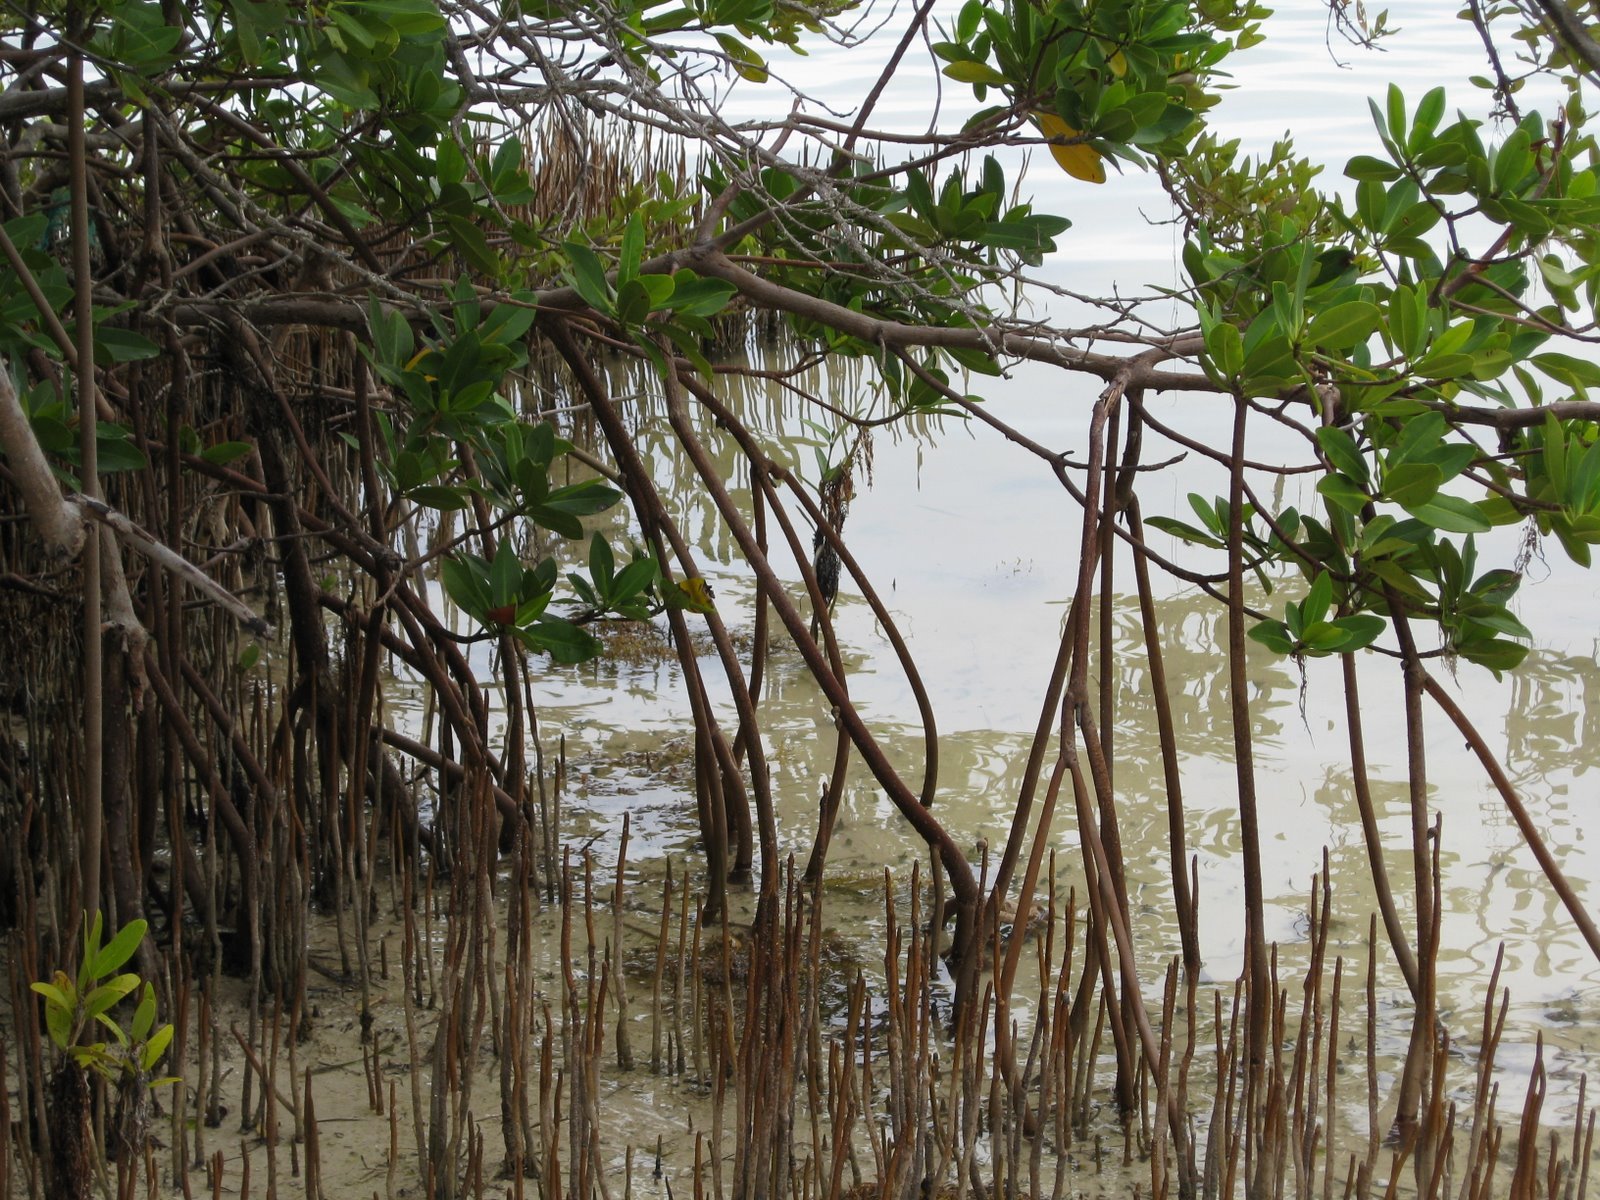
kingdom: Plantae
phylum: Tracheophyta
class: Magnoliopsida
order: Malpighiales
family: Rhizophoraceae
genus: Rhizophora
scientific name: Rhizophora mangle
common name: Red mangrove
